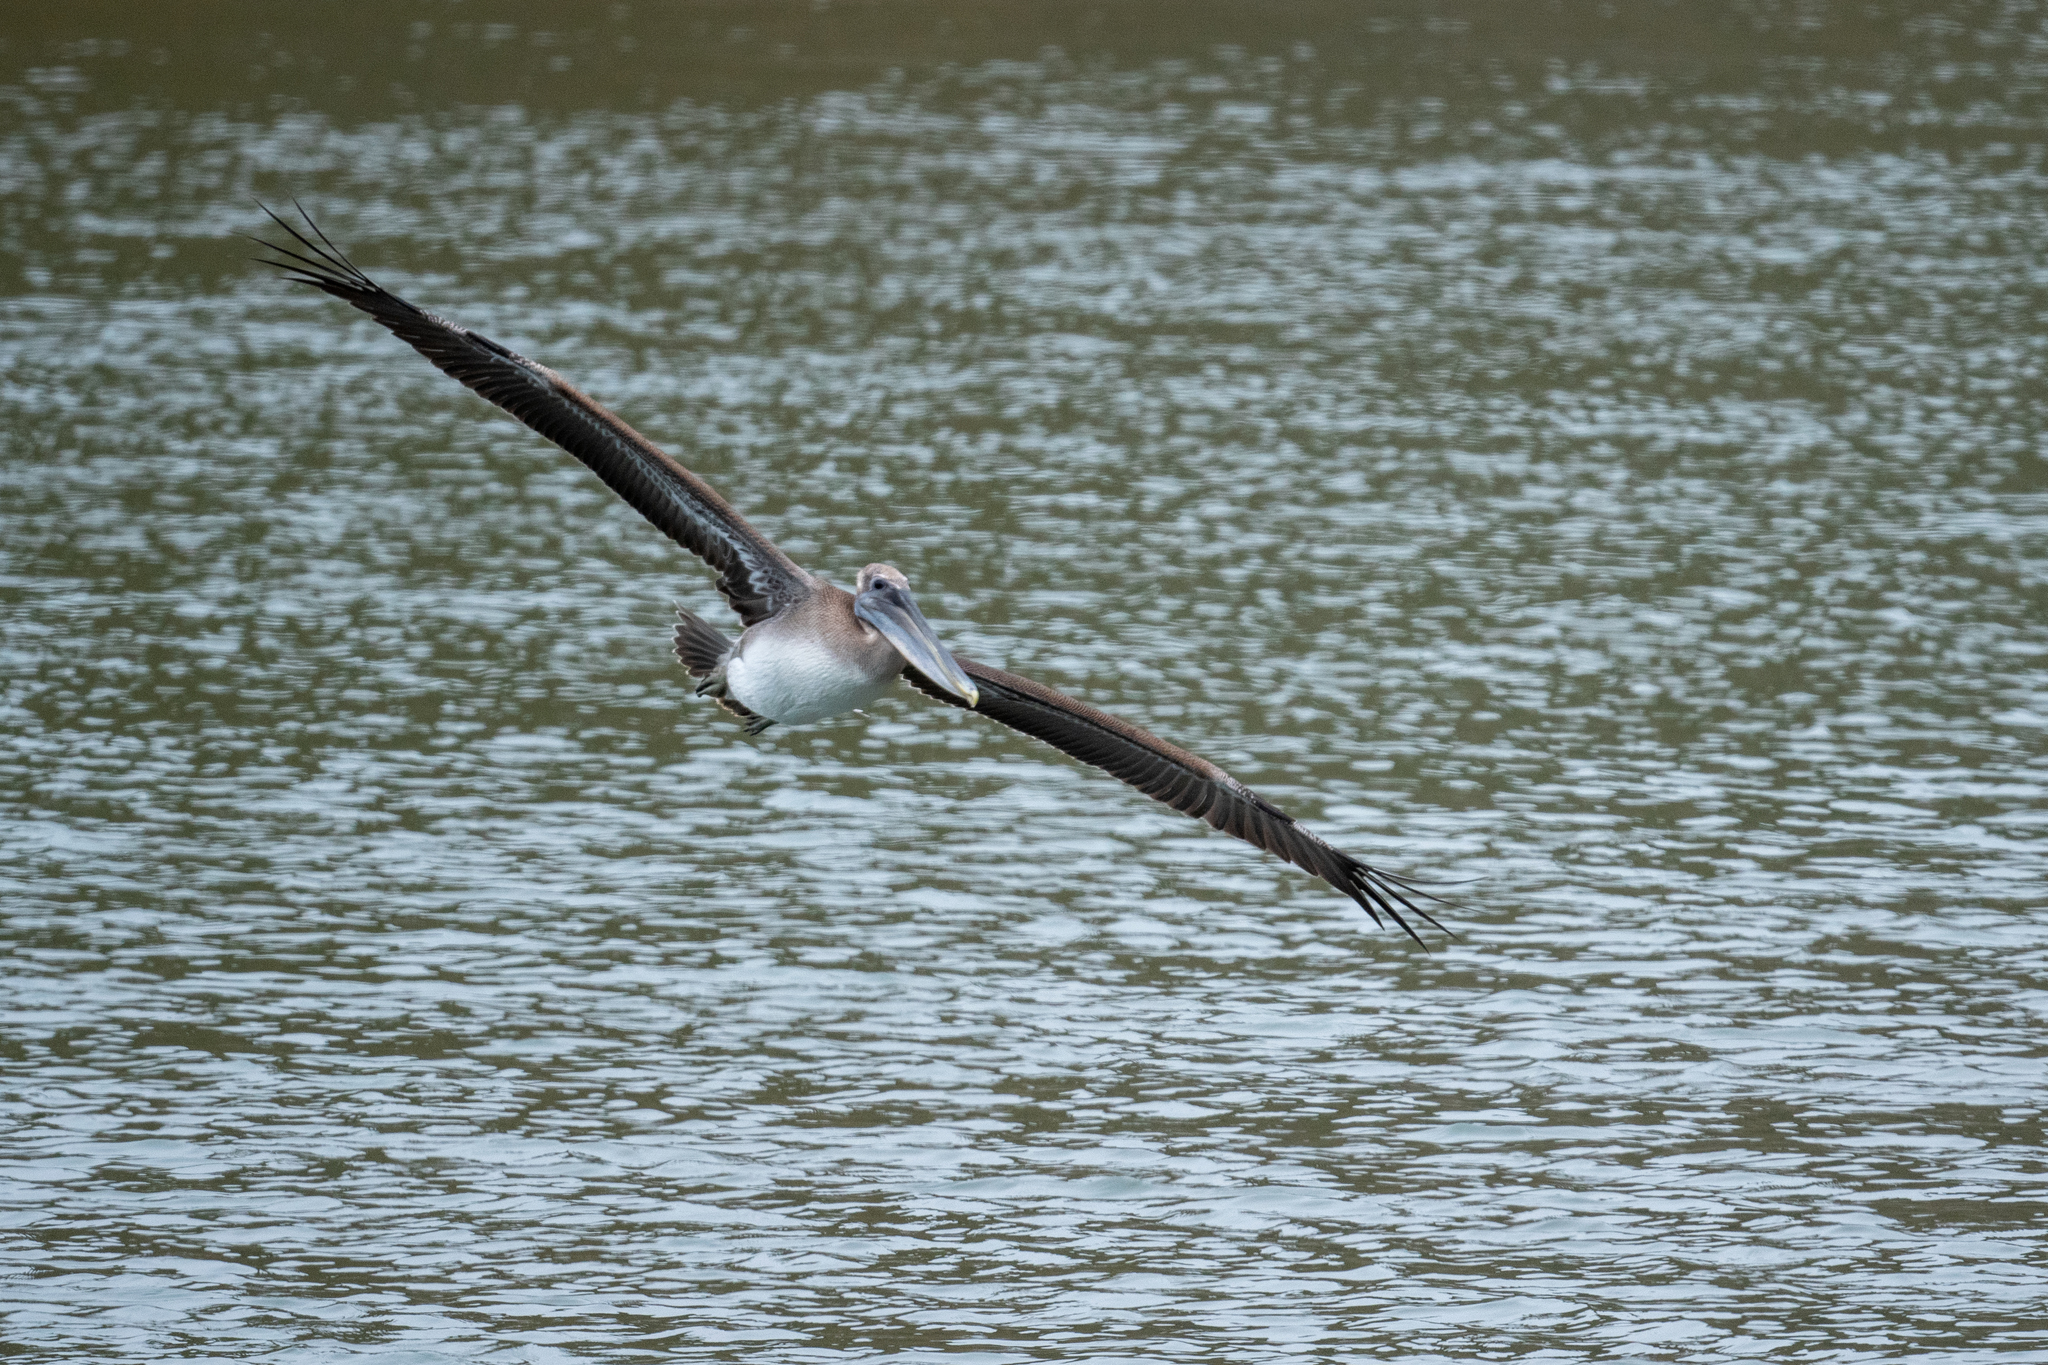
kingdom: Animalia
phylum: Chordata
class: Aves
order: Pelecaniformes
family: Pelecanidae
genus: Pelecanus
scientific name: Pelecanus occidentalis
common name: Brown pelican
